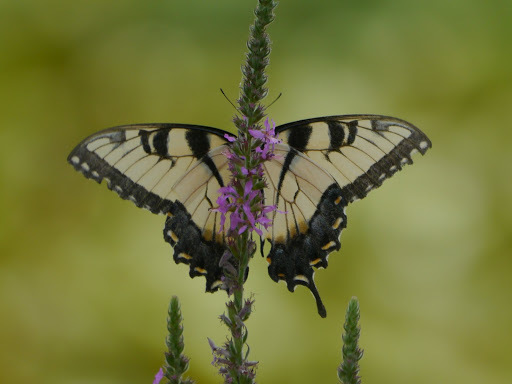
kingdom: Animalia
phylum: Arthropoda
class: Insecta
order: Lepidoptera
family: Papilionidae
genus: Papilio
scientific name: Papilio glaucus
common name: Tiger swallowtail
